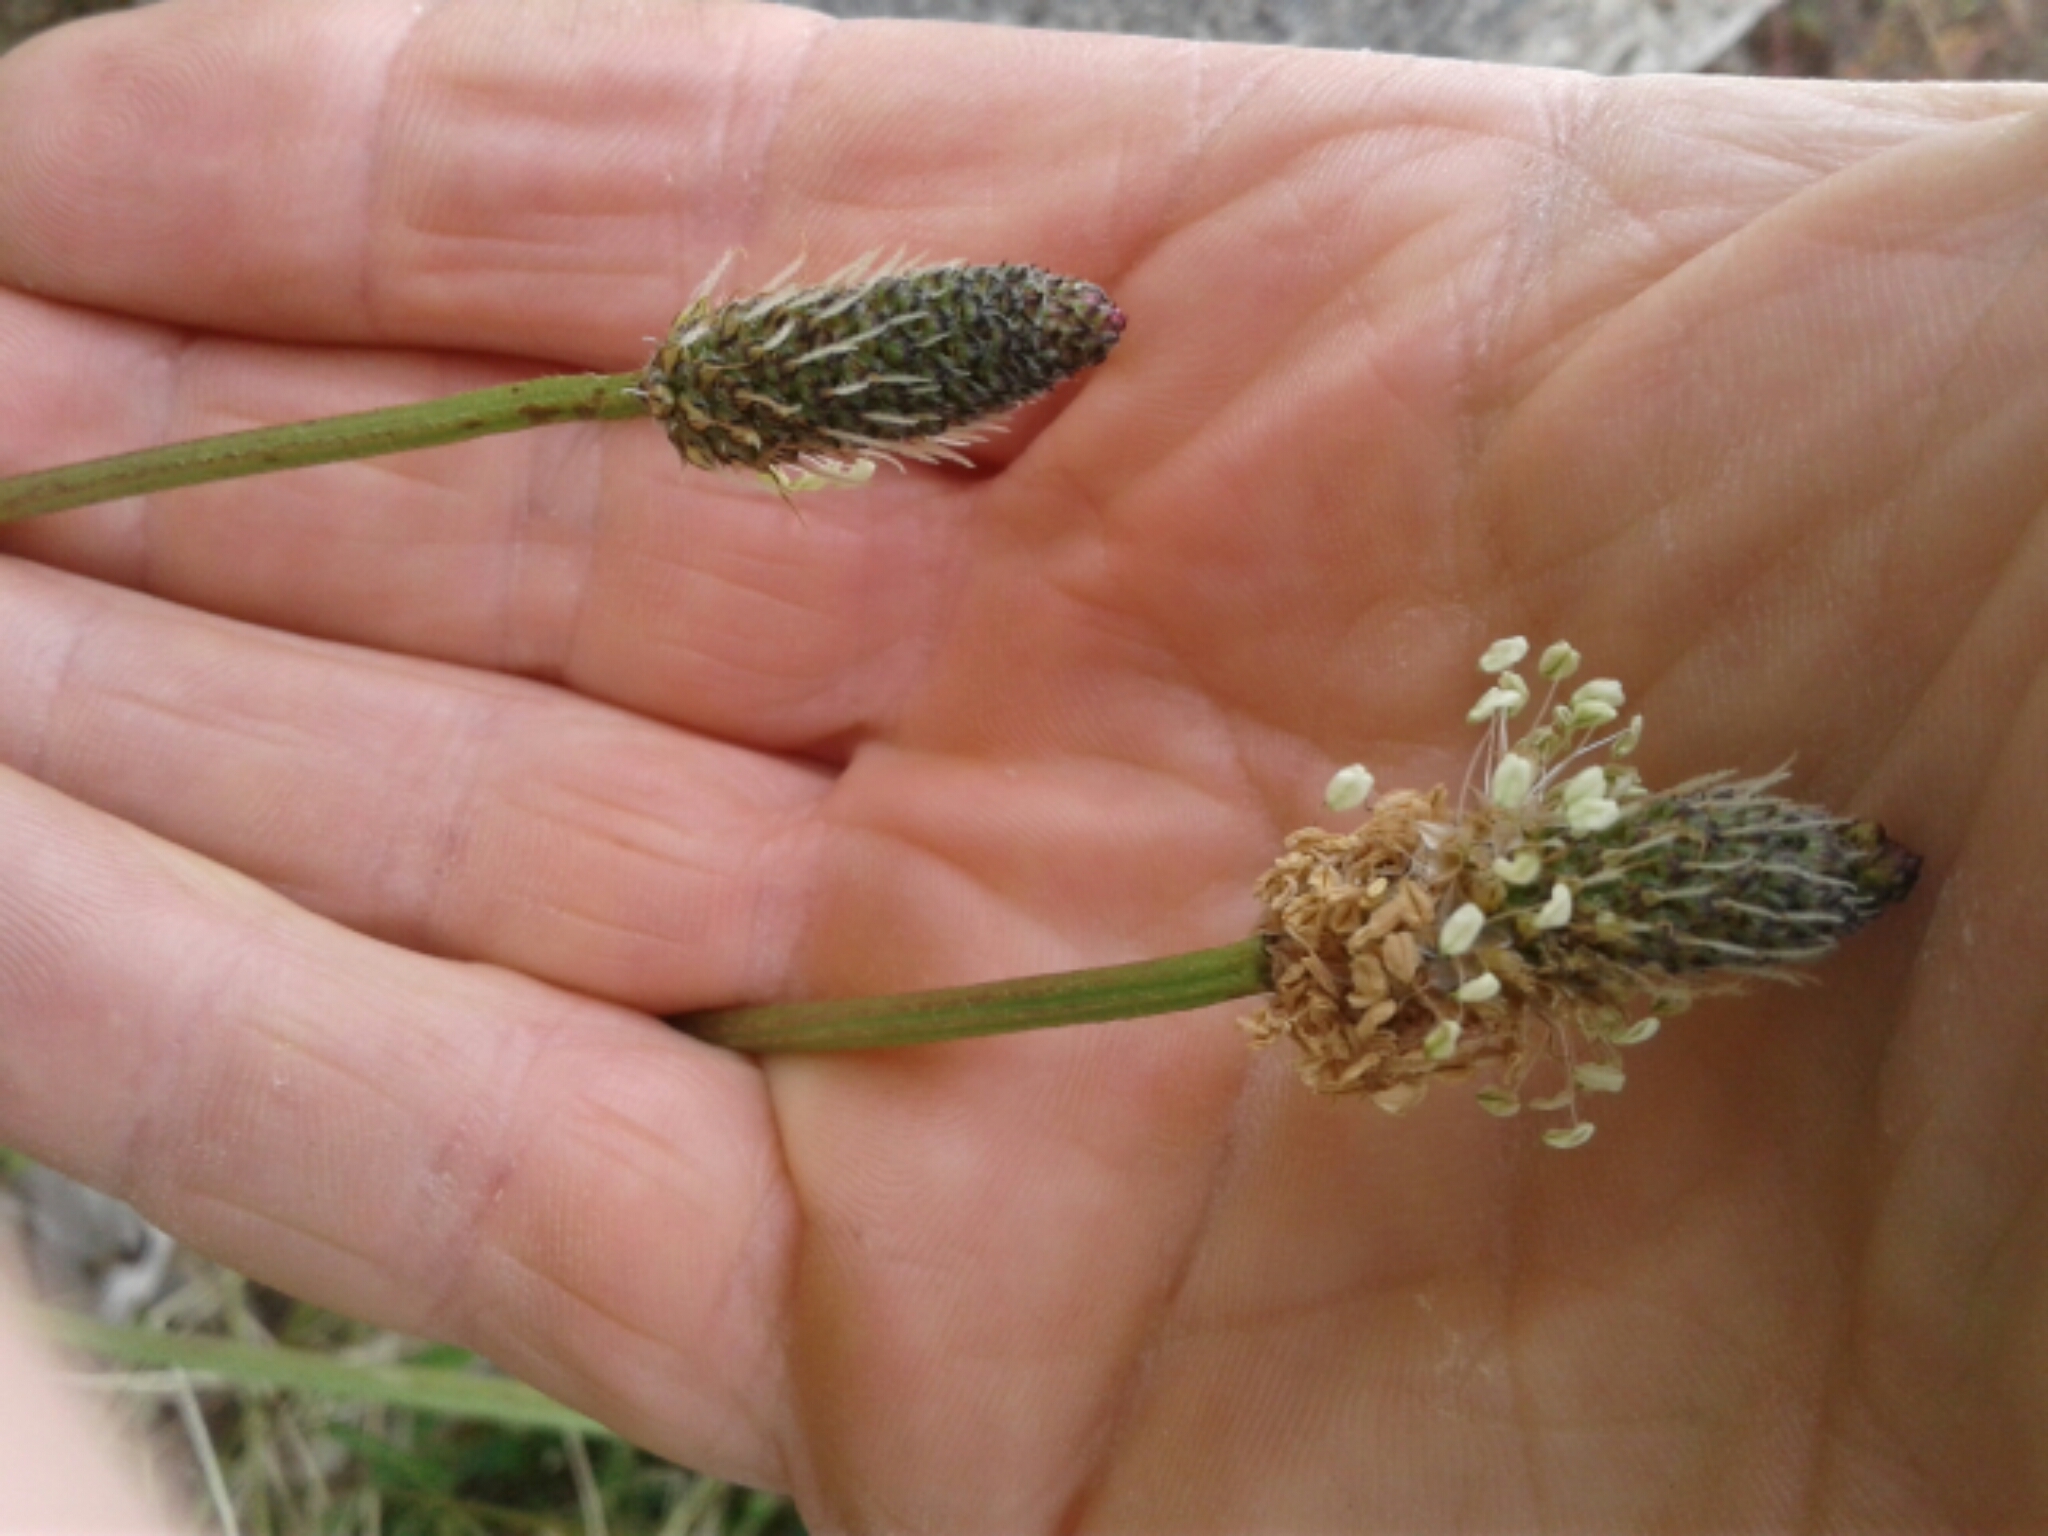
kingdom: Plantae
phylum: Tracheophyta
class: Magnoliopsida
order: Lamiales
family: Plantaginaceae
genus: Plantago
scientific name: Plantago lanceolata
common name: Ribwort plantain
